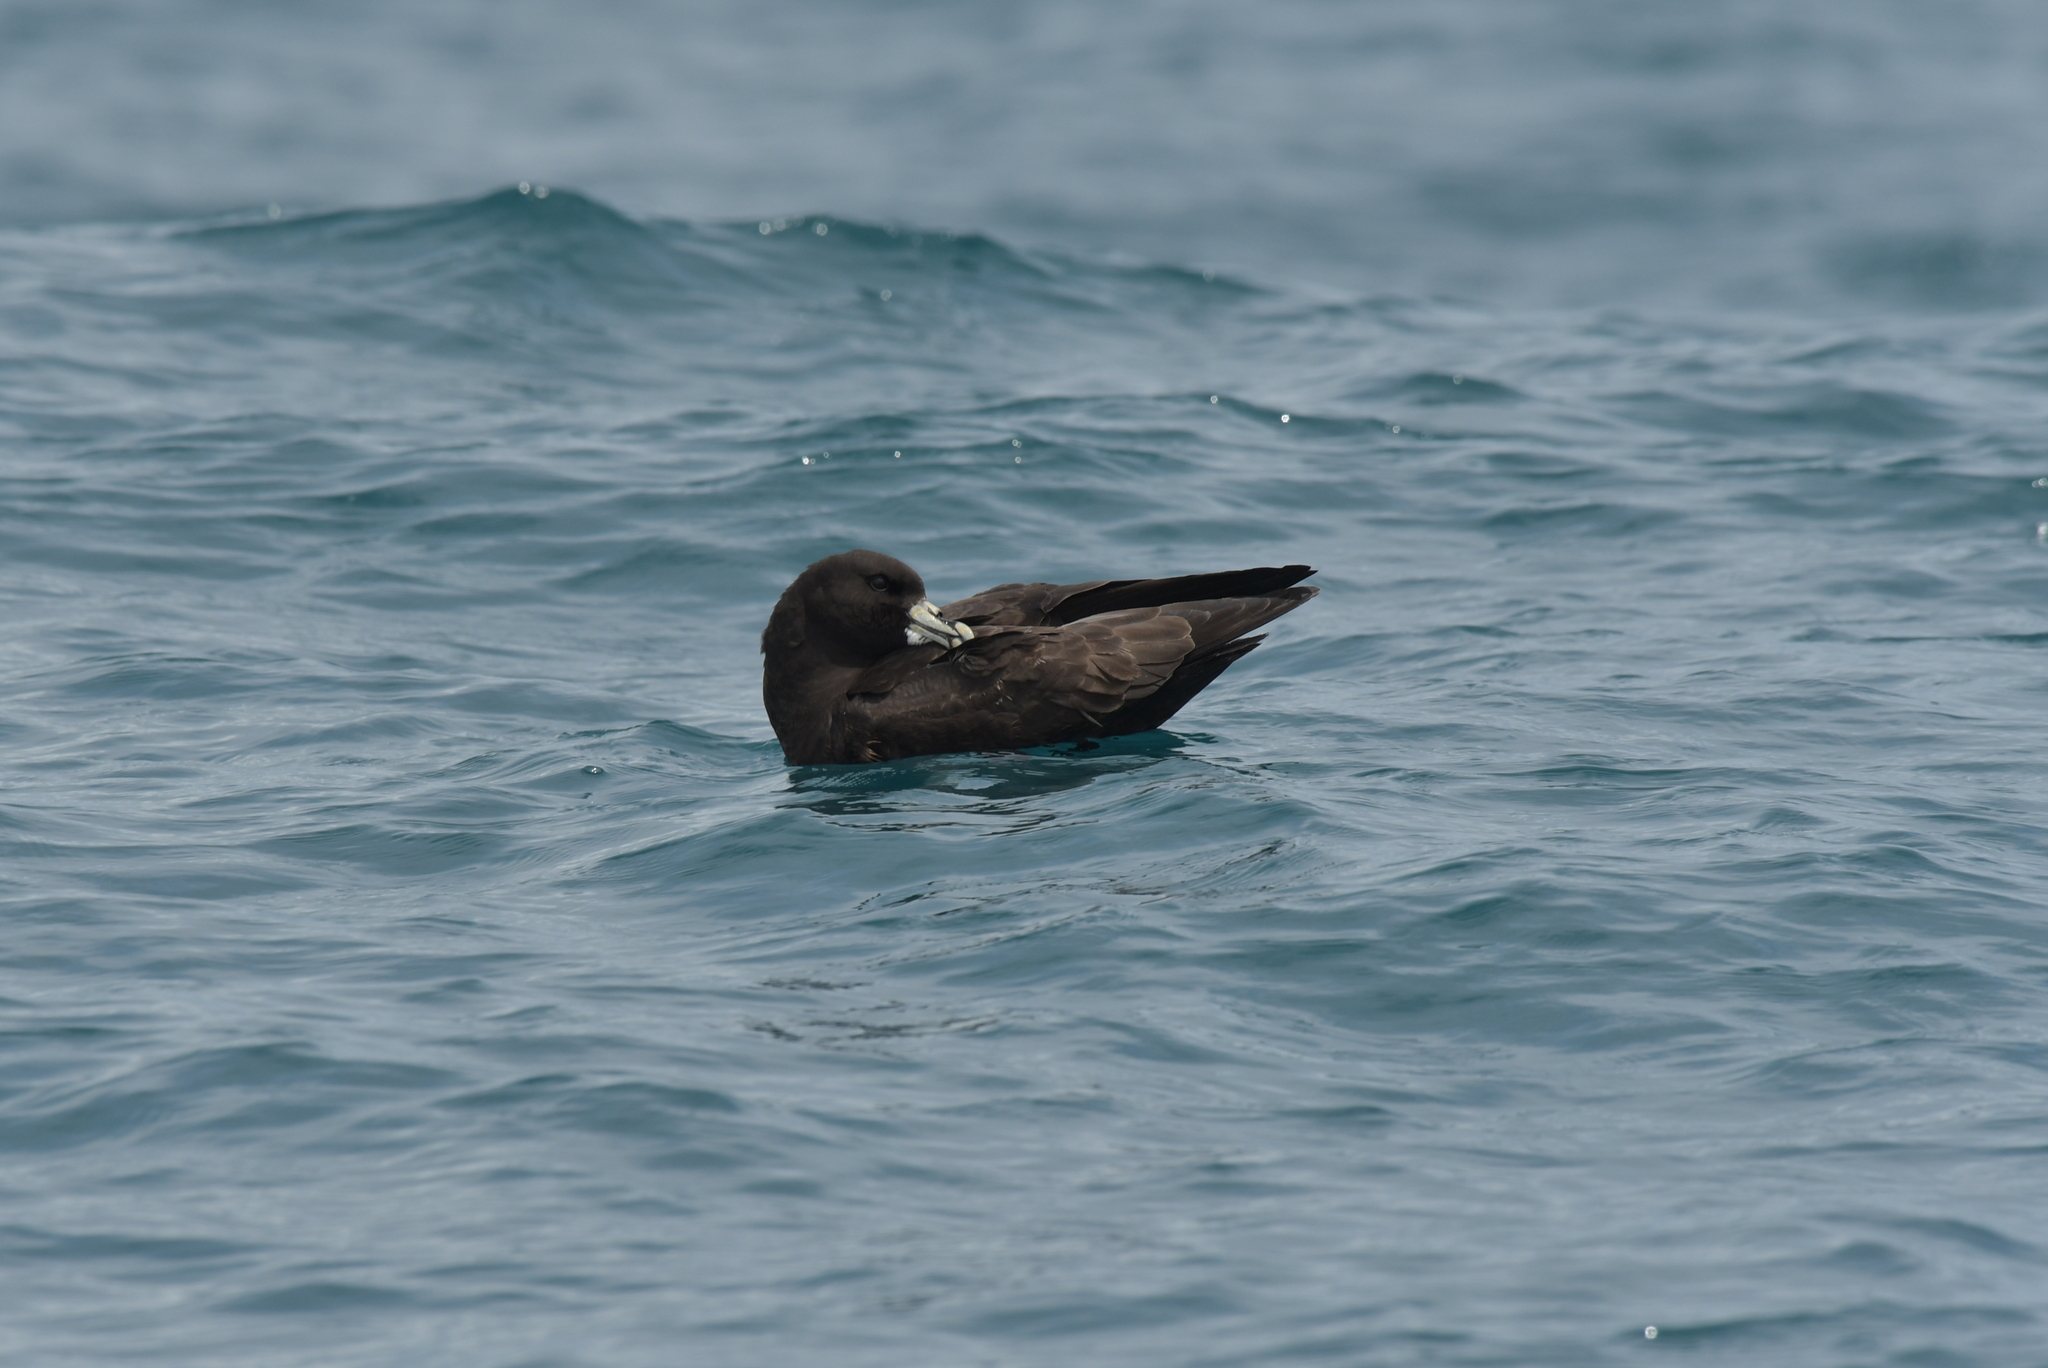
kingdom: Animalia
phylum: Chordata
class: Aves
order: Procellariiformes
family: Procellariidae
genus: Procellaria
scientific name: Procellaria aequinoctialis
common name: White-chinned petrel
